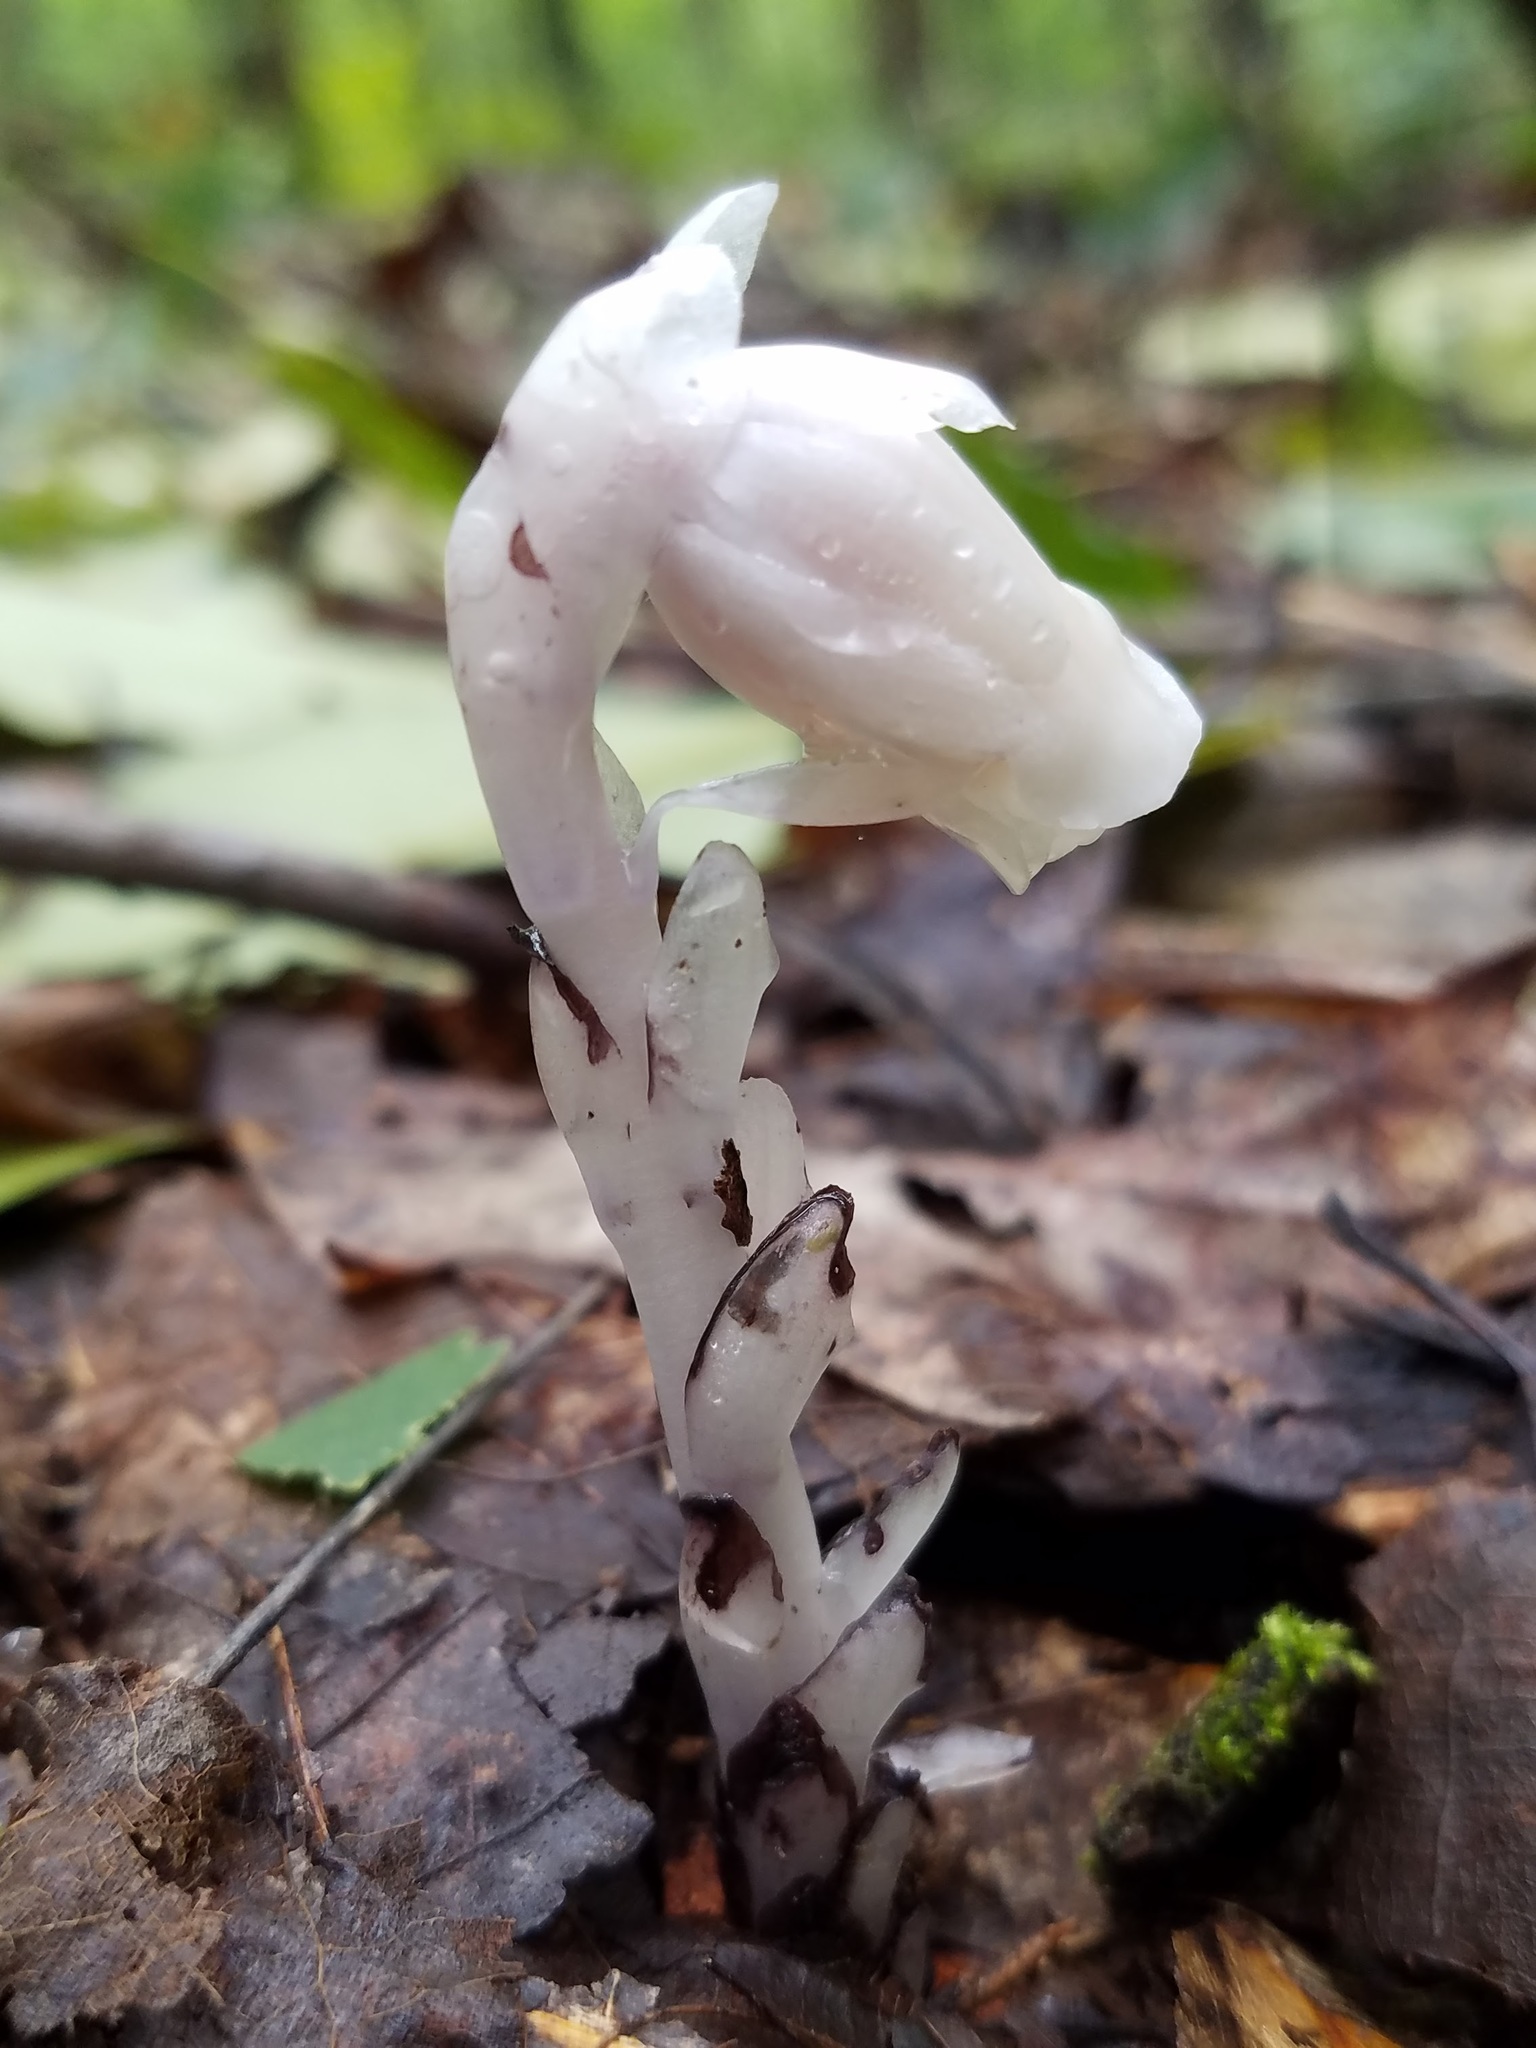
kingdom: Plantae
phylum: Tracheophyta
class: Magnoliopsida
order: Ericales
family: Ericaceae
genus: Monotropa
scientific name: Monotropa uniflora
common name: Convulsion root
